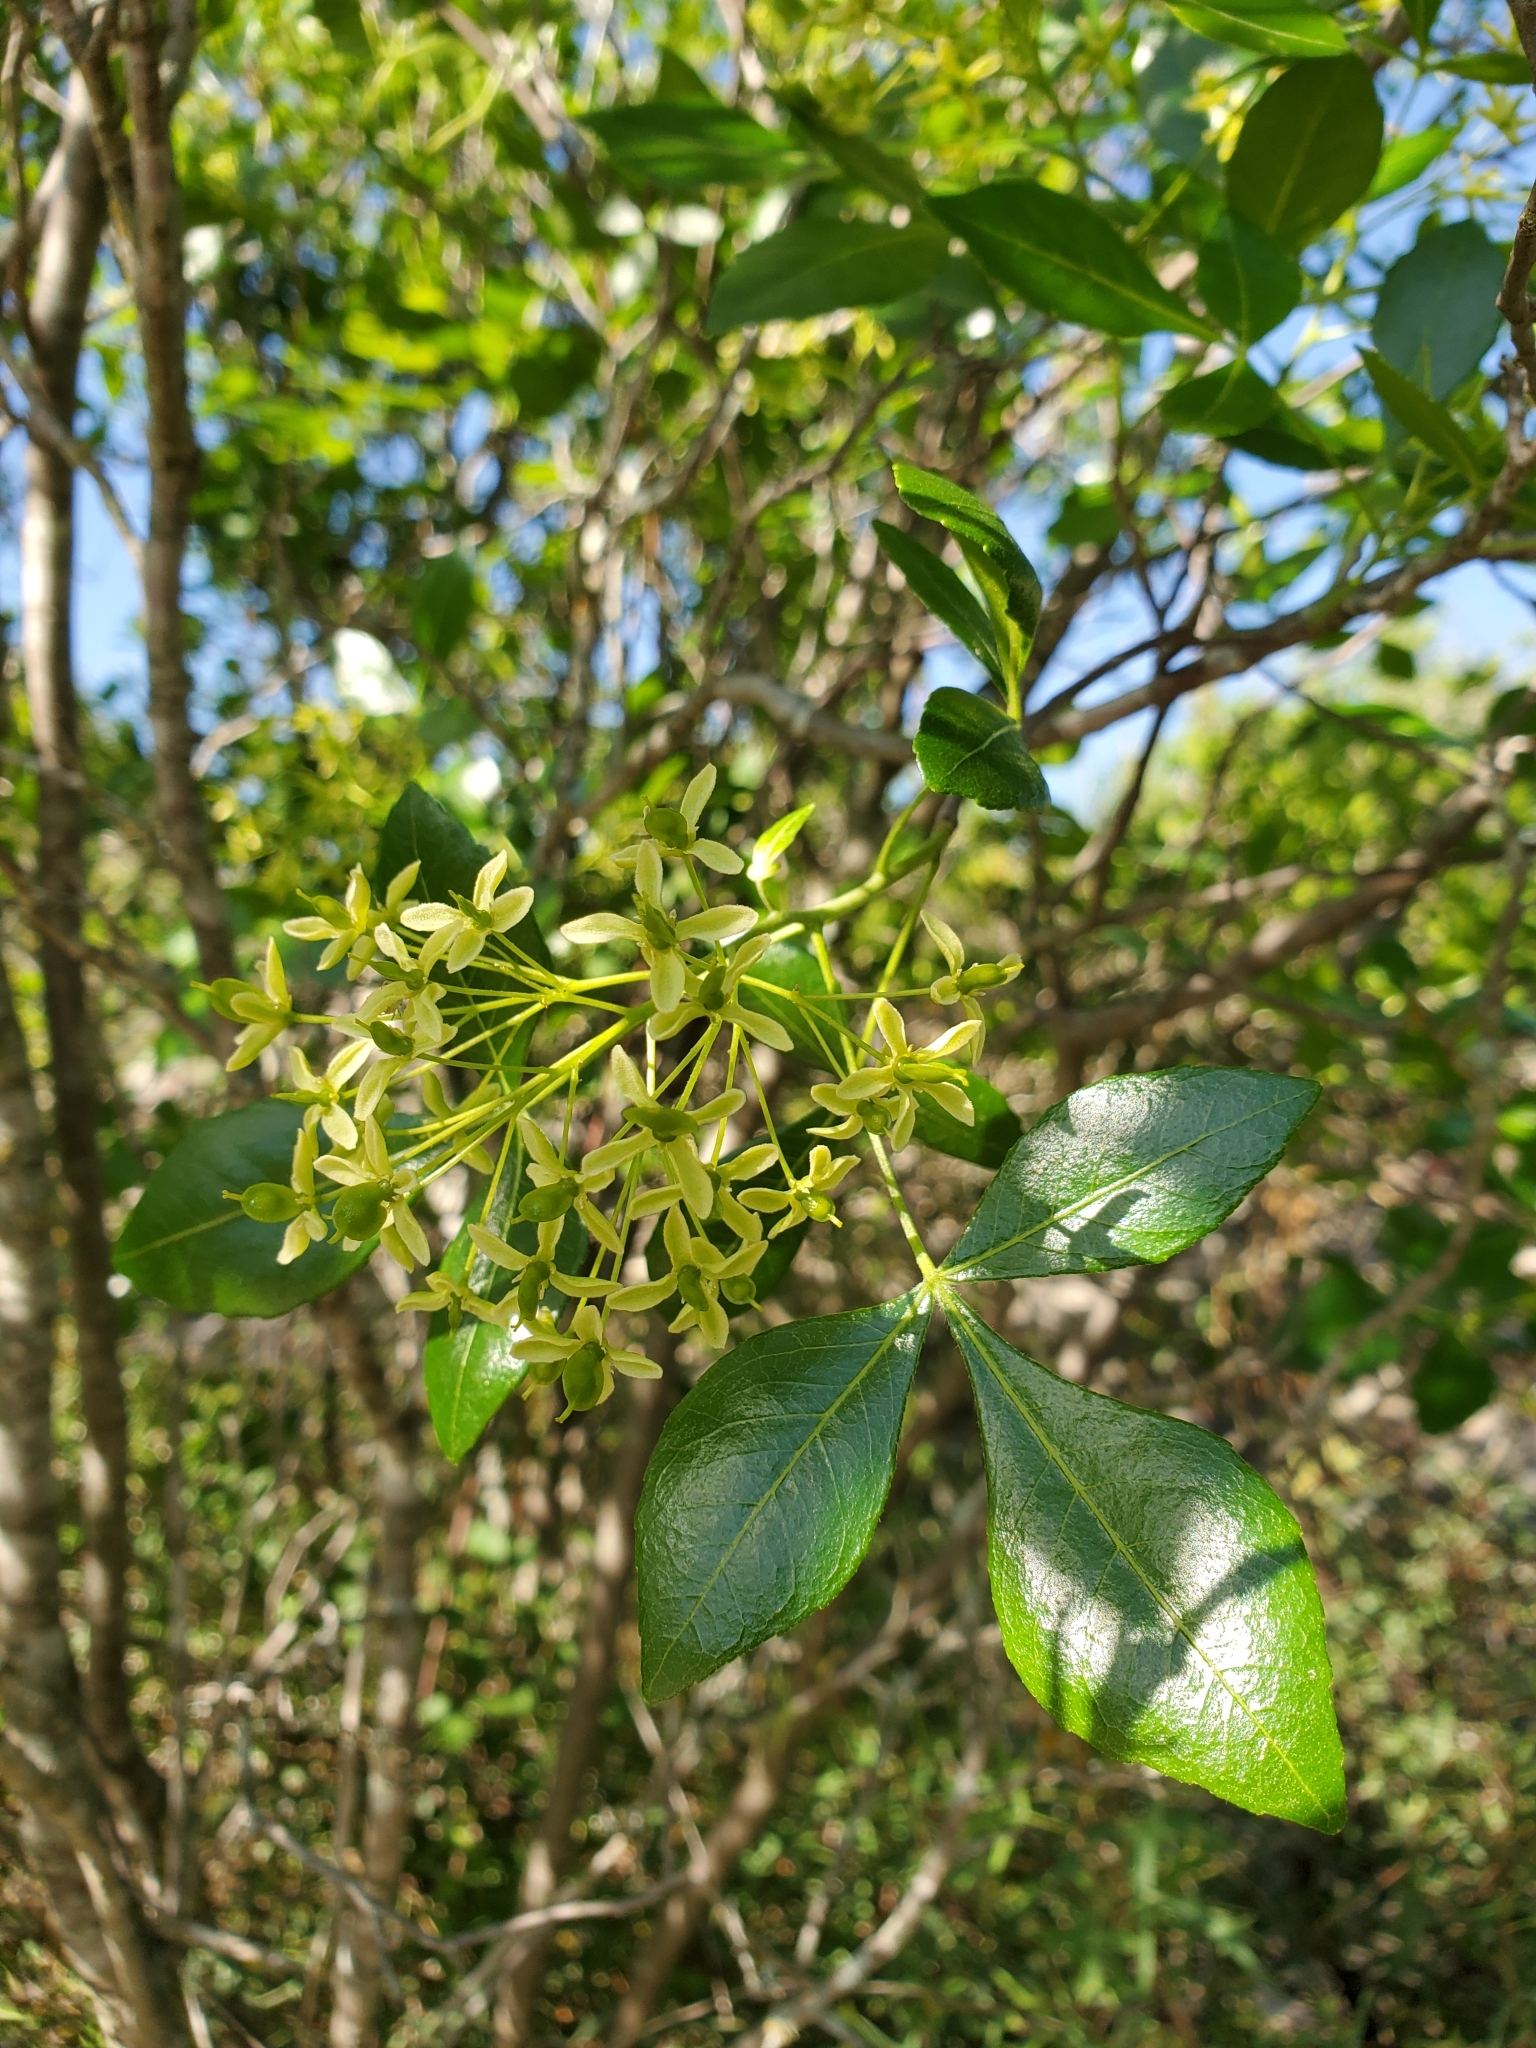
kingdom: Plantae
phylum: Tracheophyta
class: Magnoliopsida
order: Sapindales
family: Rutaceae
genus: Ptelea
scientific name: Ptelea trifoliata
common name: Common hop-tree
